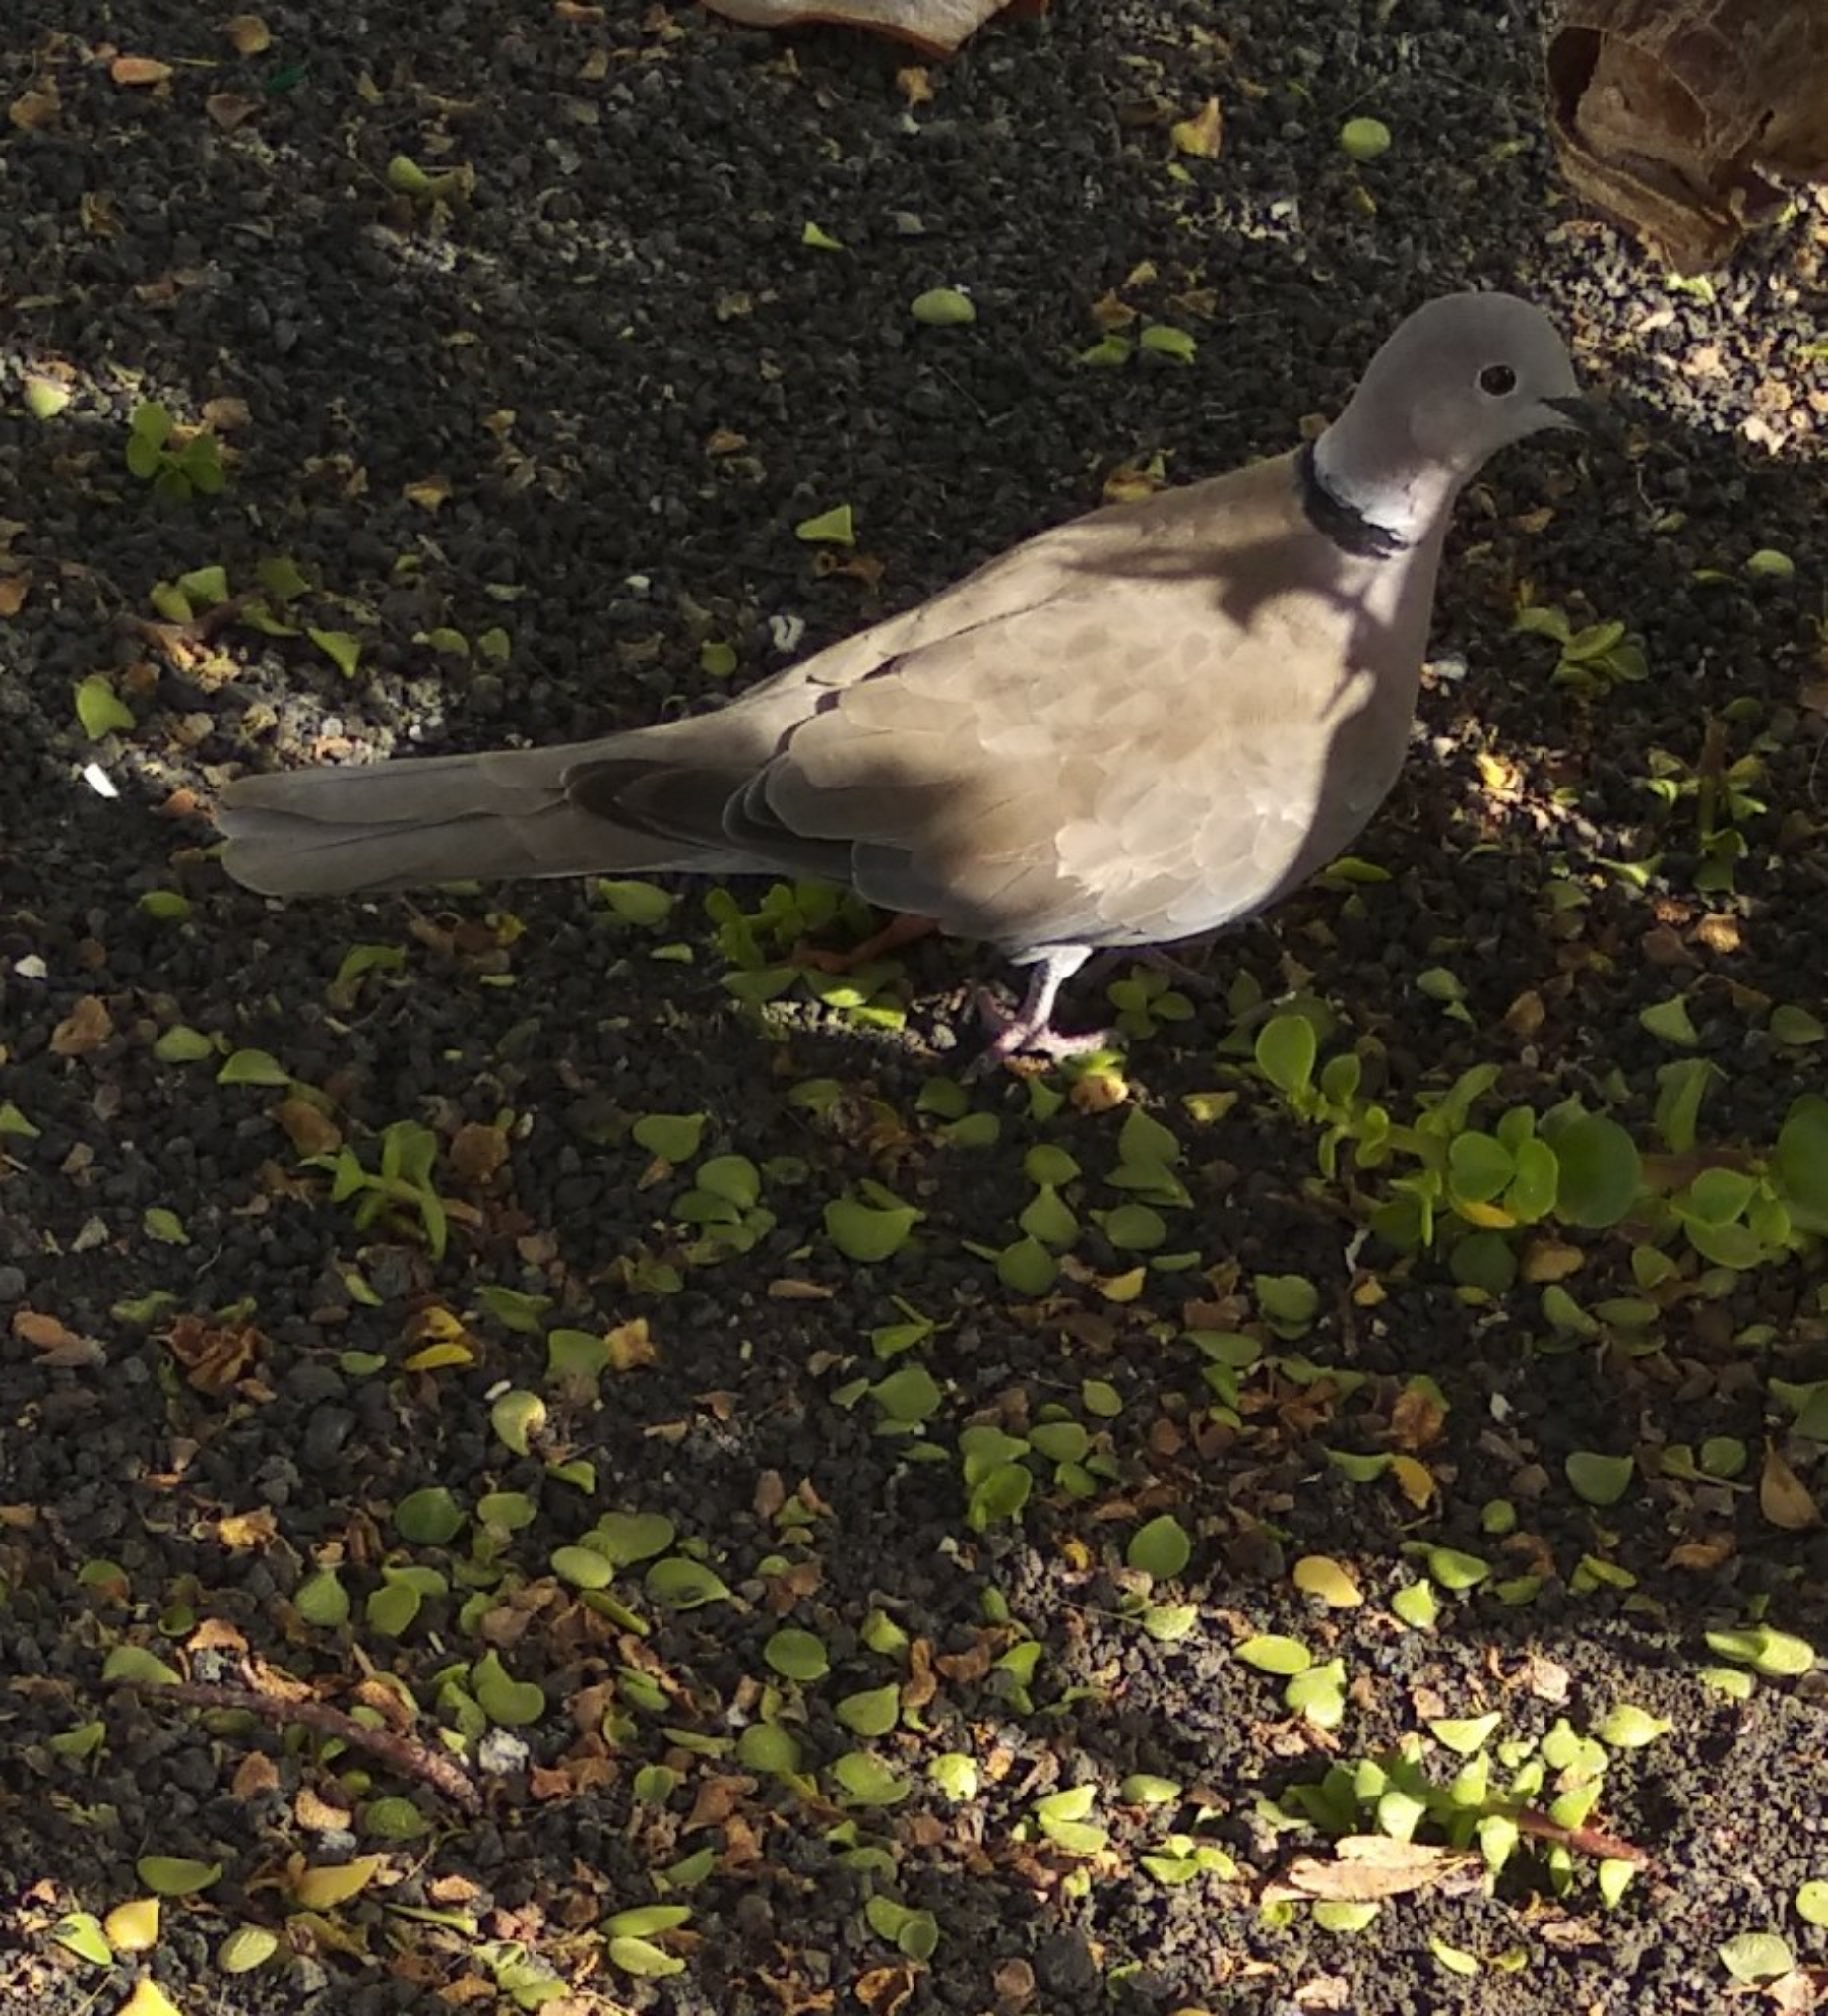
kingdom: Animalia
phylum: Chordata
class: Aves
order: Columbiformes
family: Columbidae
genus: Streptopelia
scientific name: Streptopelia decaocto
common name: Eurasian collared dove
